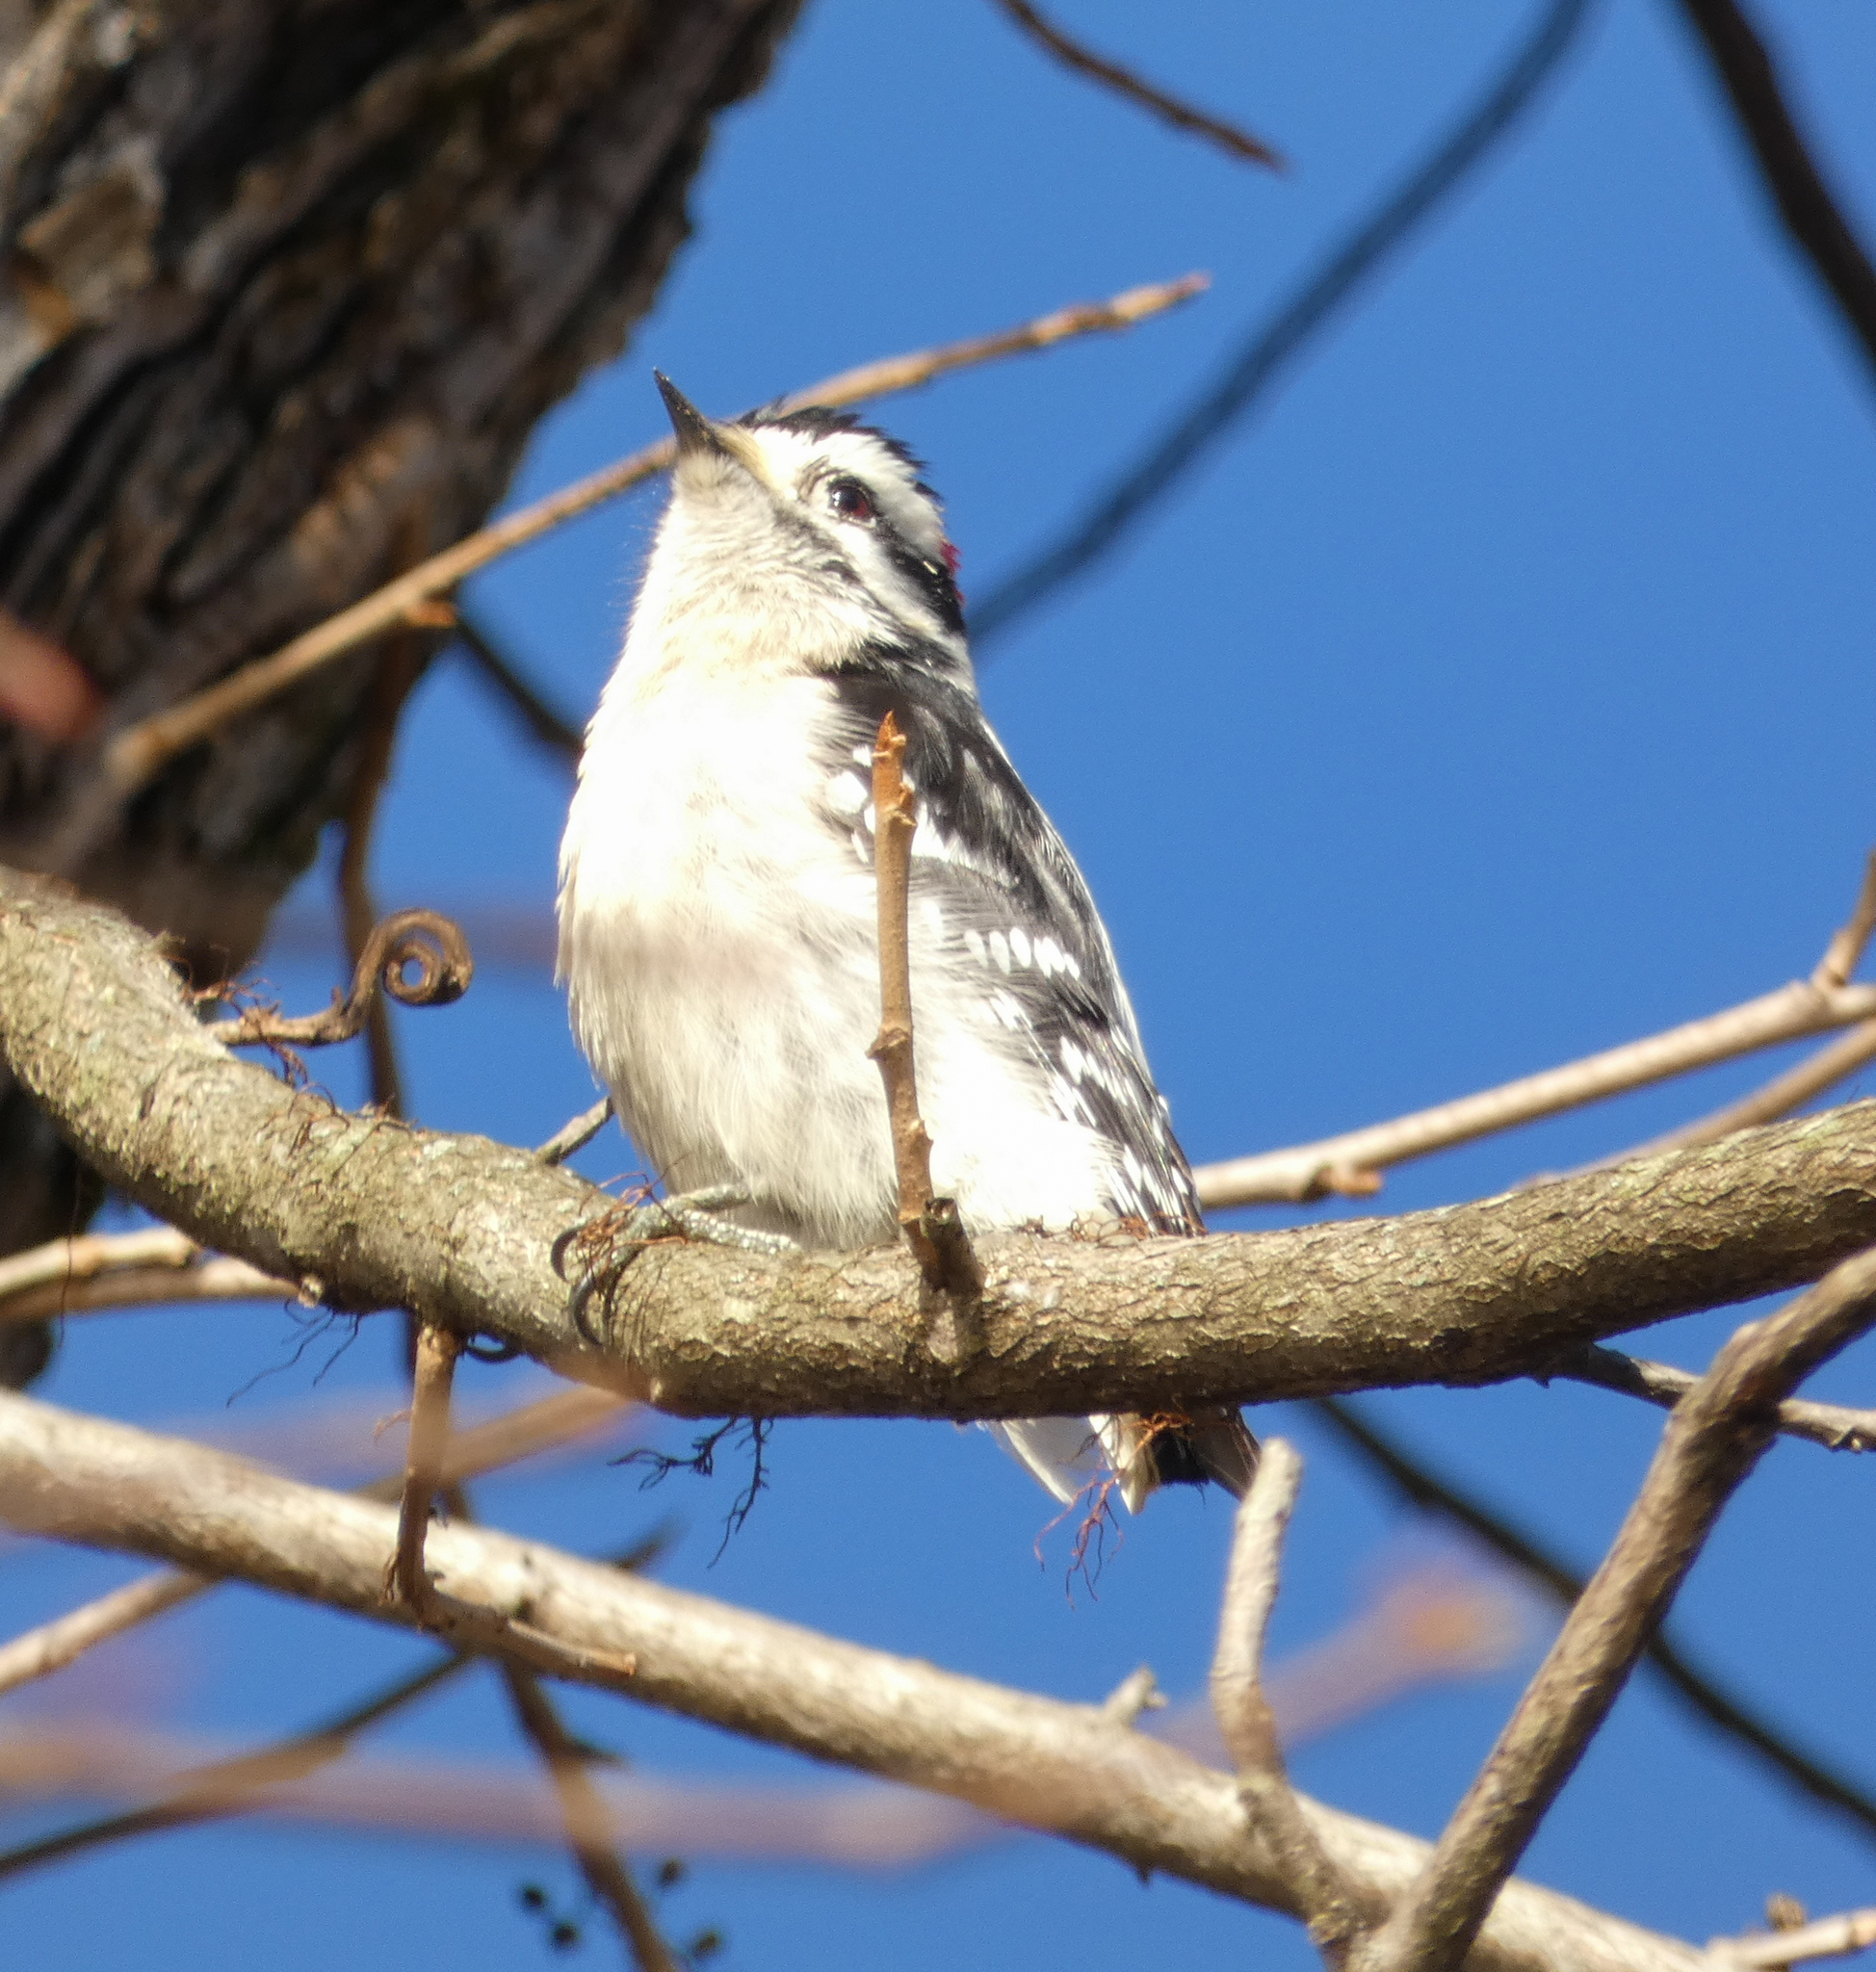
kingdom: Animalia
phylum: Chordata
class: Aves
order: Piciformes
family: Picidae
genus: Dryobates
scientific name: Dryobates pubescens
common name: Downy woodpecker
